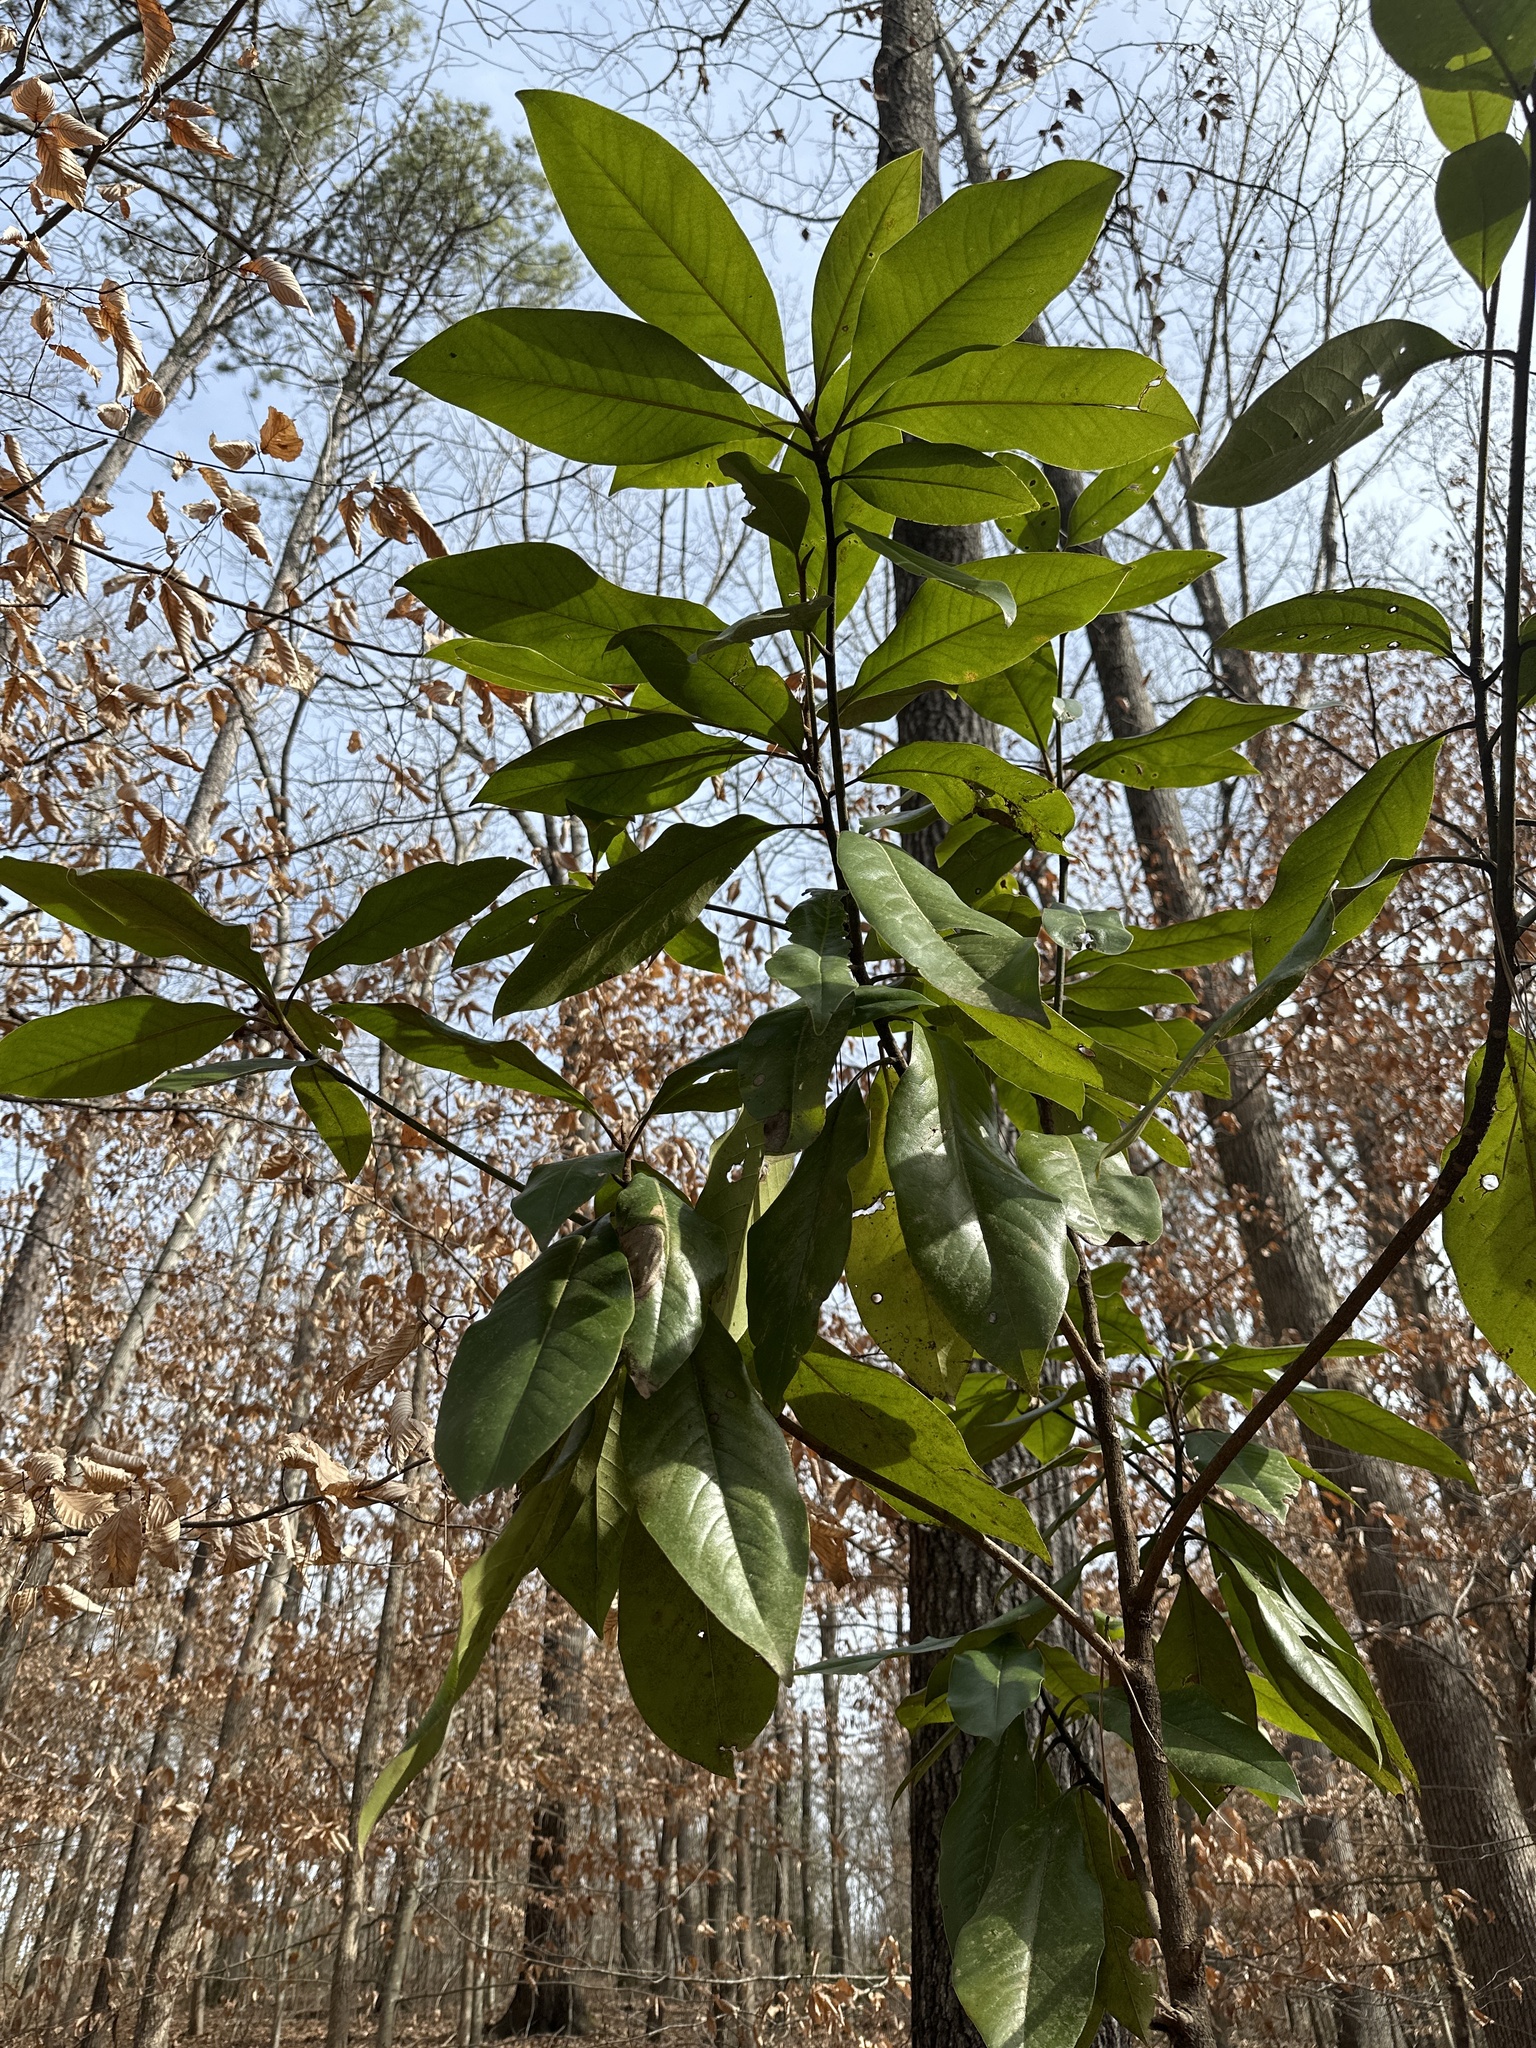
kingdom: Plantae
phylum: Tracheophyta
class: Magnoliopsida
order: Magnoliales
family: Magnoliaceae
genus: Magnolia
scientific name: Magnolia grandiflora
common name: Southern magnolia
